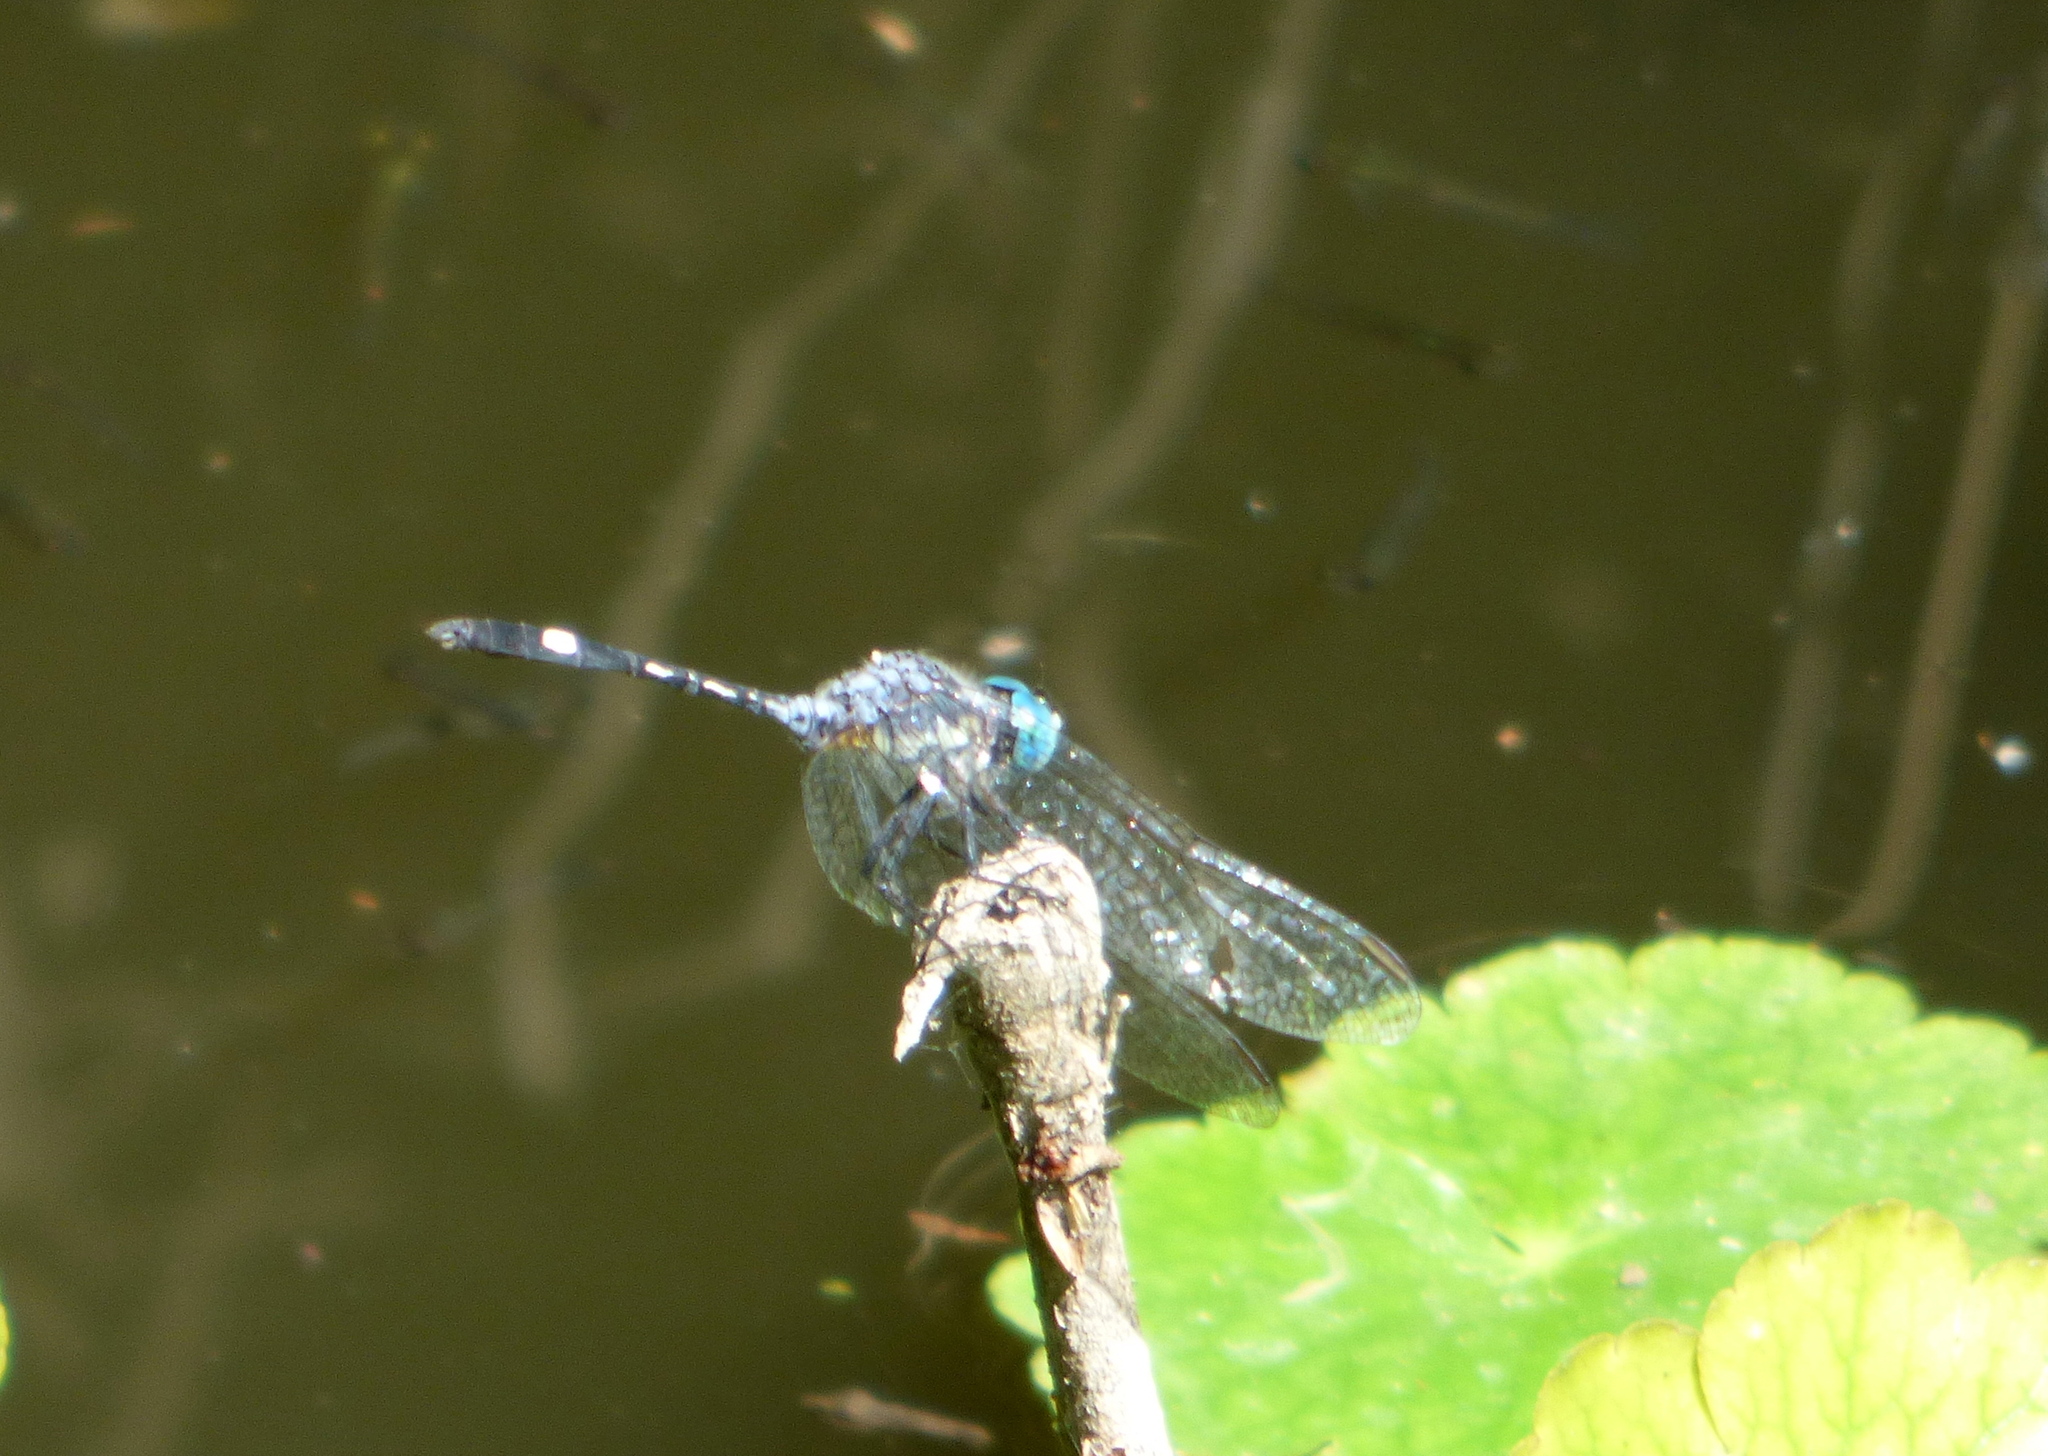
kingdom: Animalia
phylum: Arthropoda
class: Insecta
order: Odonata
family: Libellulidae
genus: Micrathyria
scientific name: Micrathyria longifasciata
